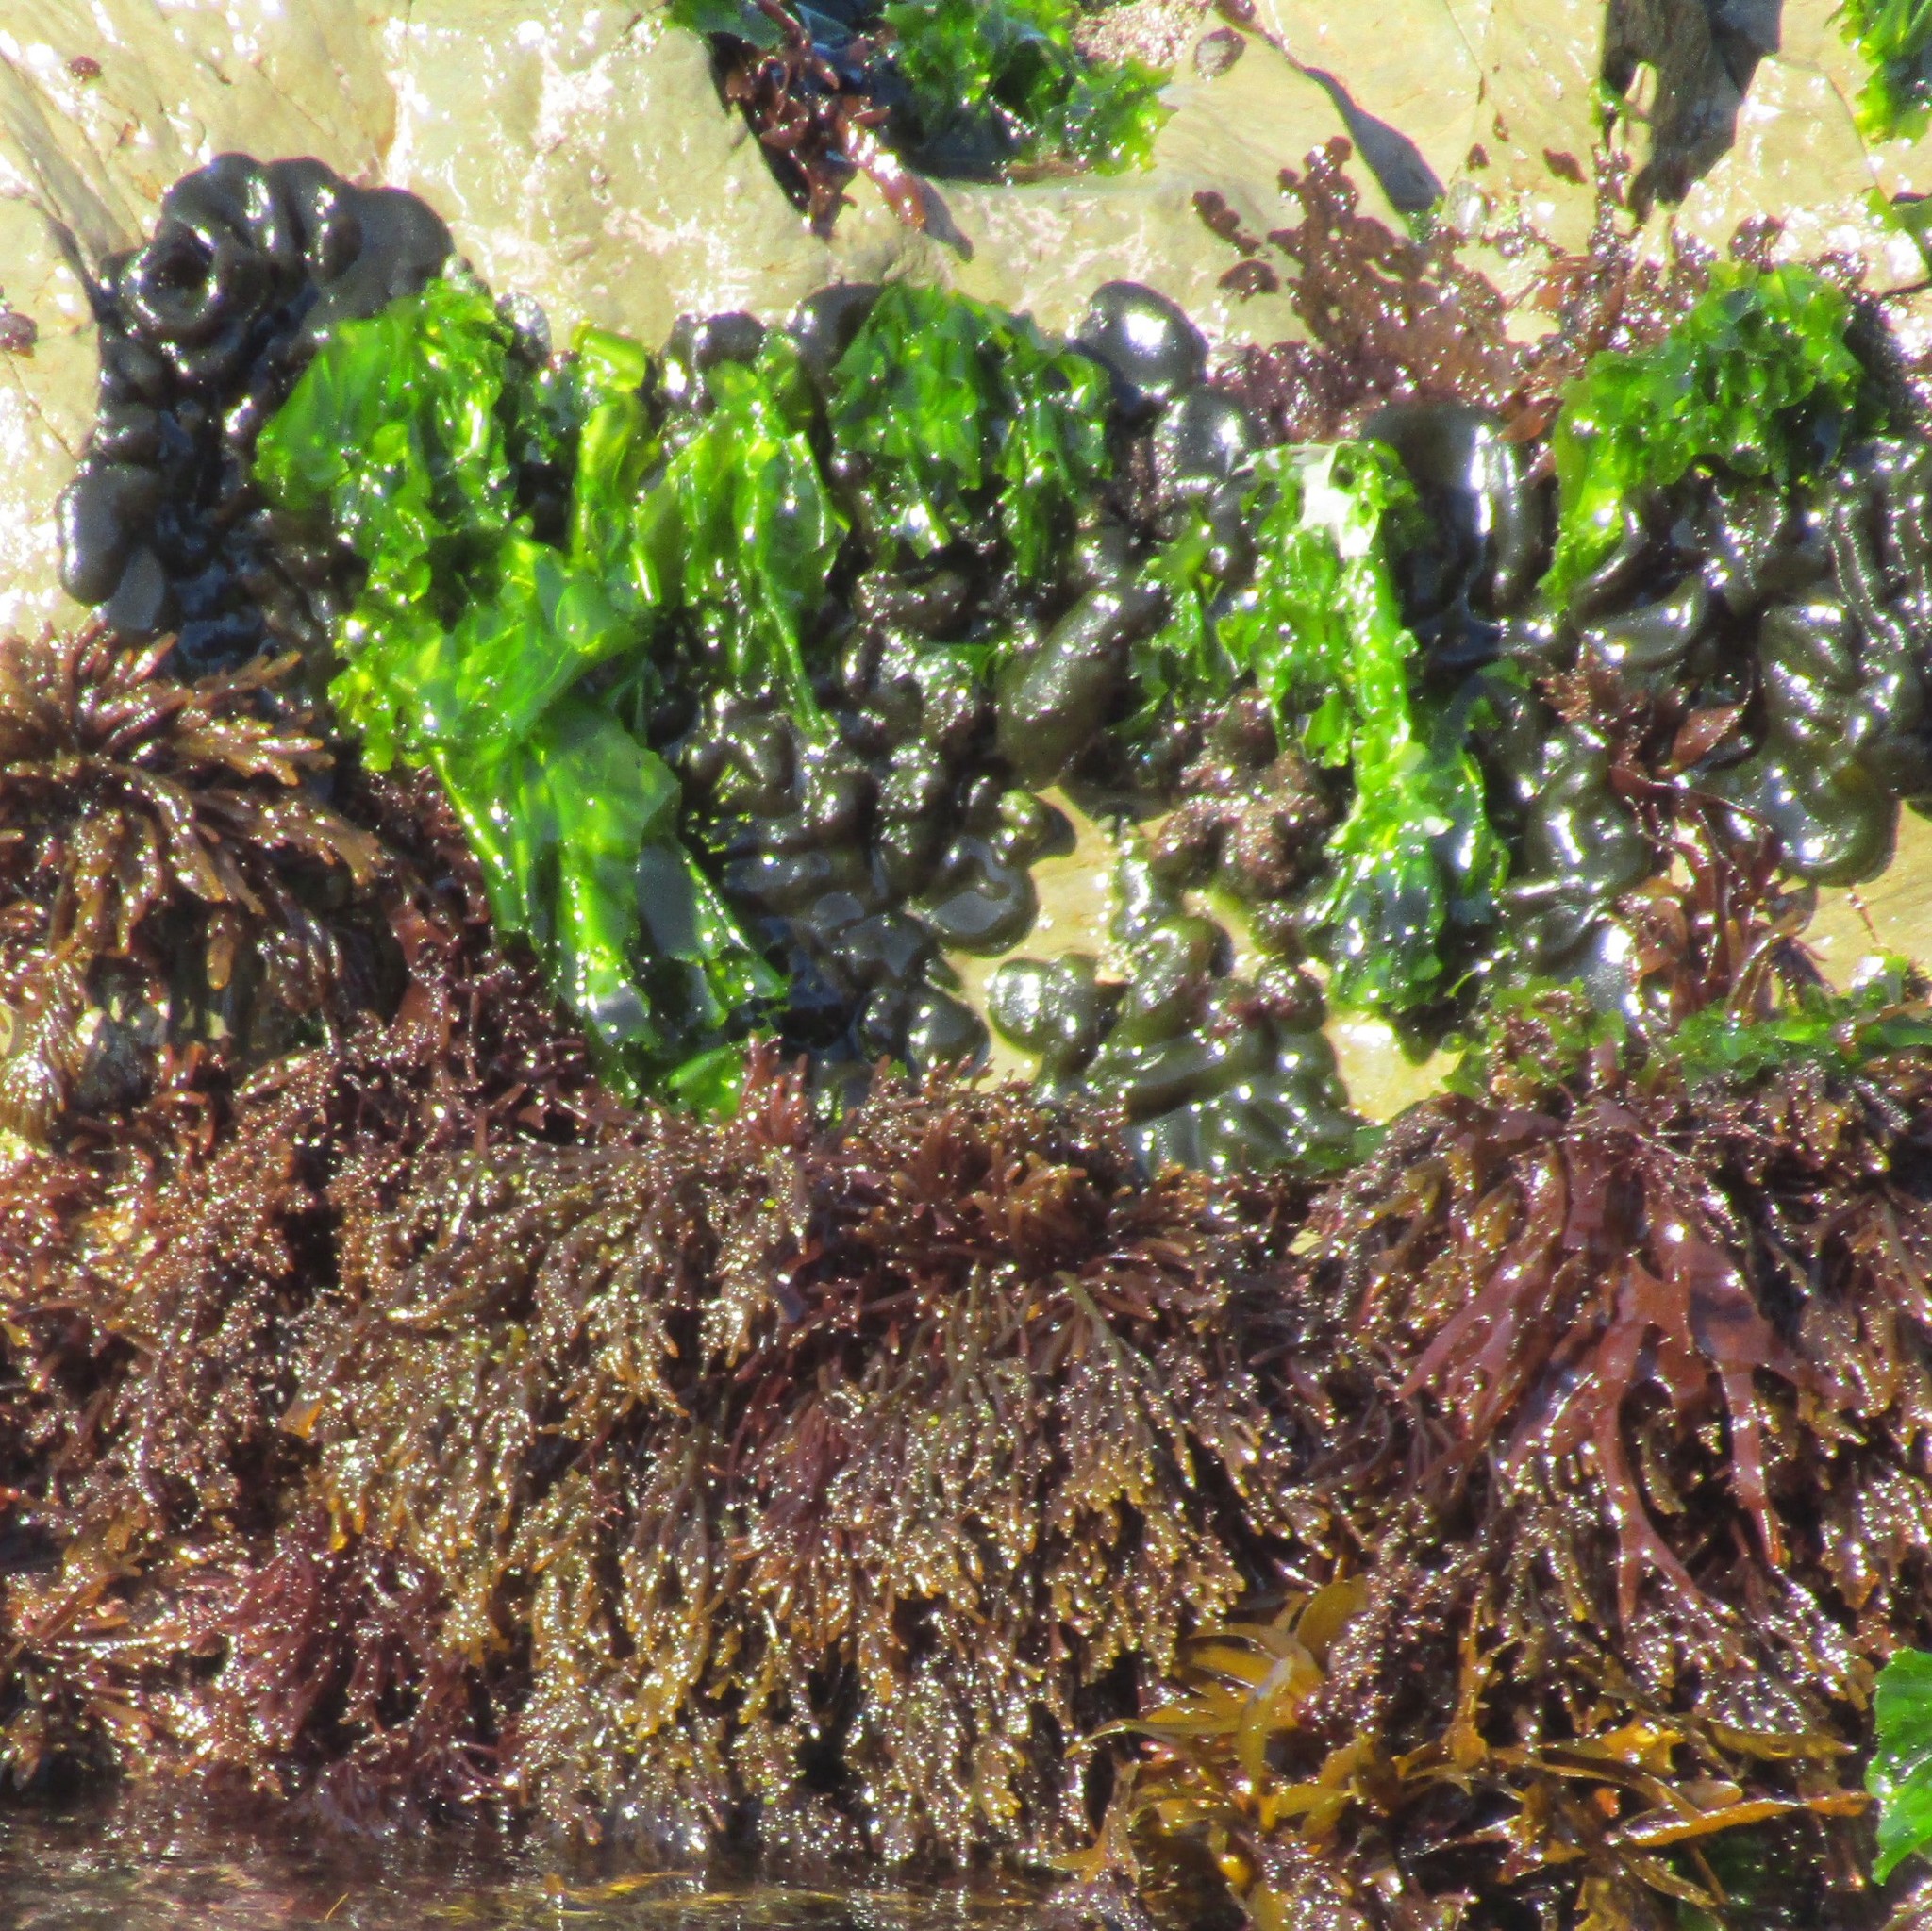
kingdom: Plantae
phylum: Chlorophyta
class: Ulvophyceae
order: Bryopsidales
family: Codiaceae
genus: Codium
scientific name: Codium convolutum
